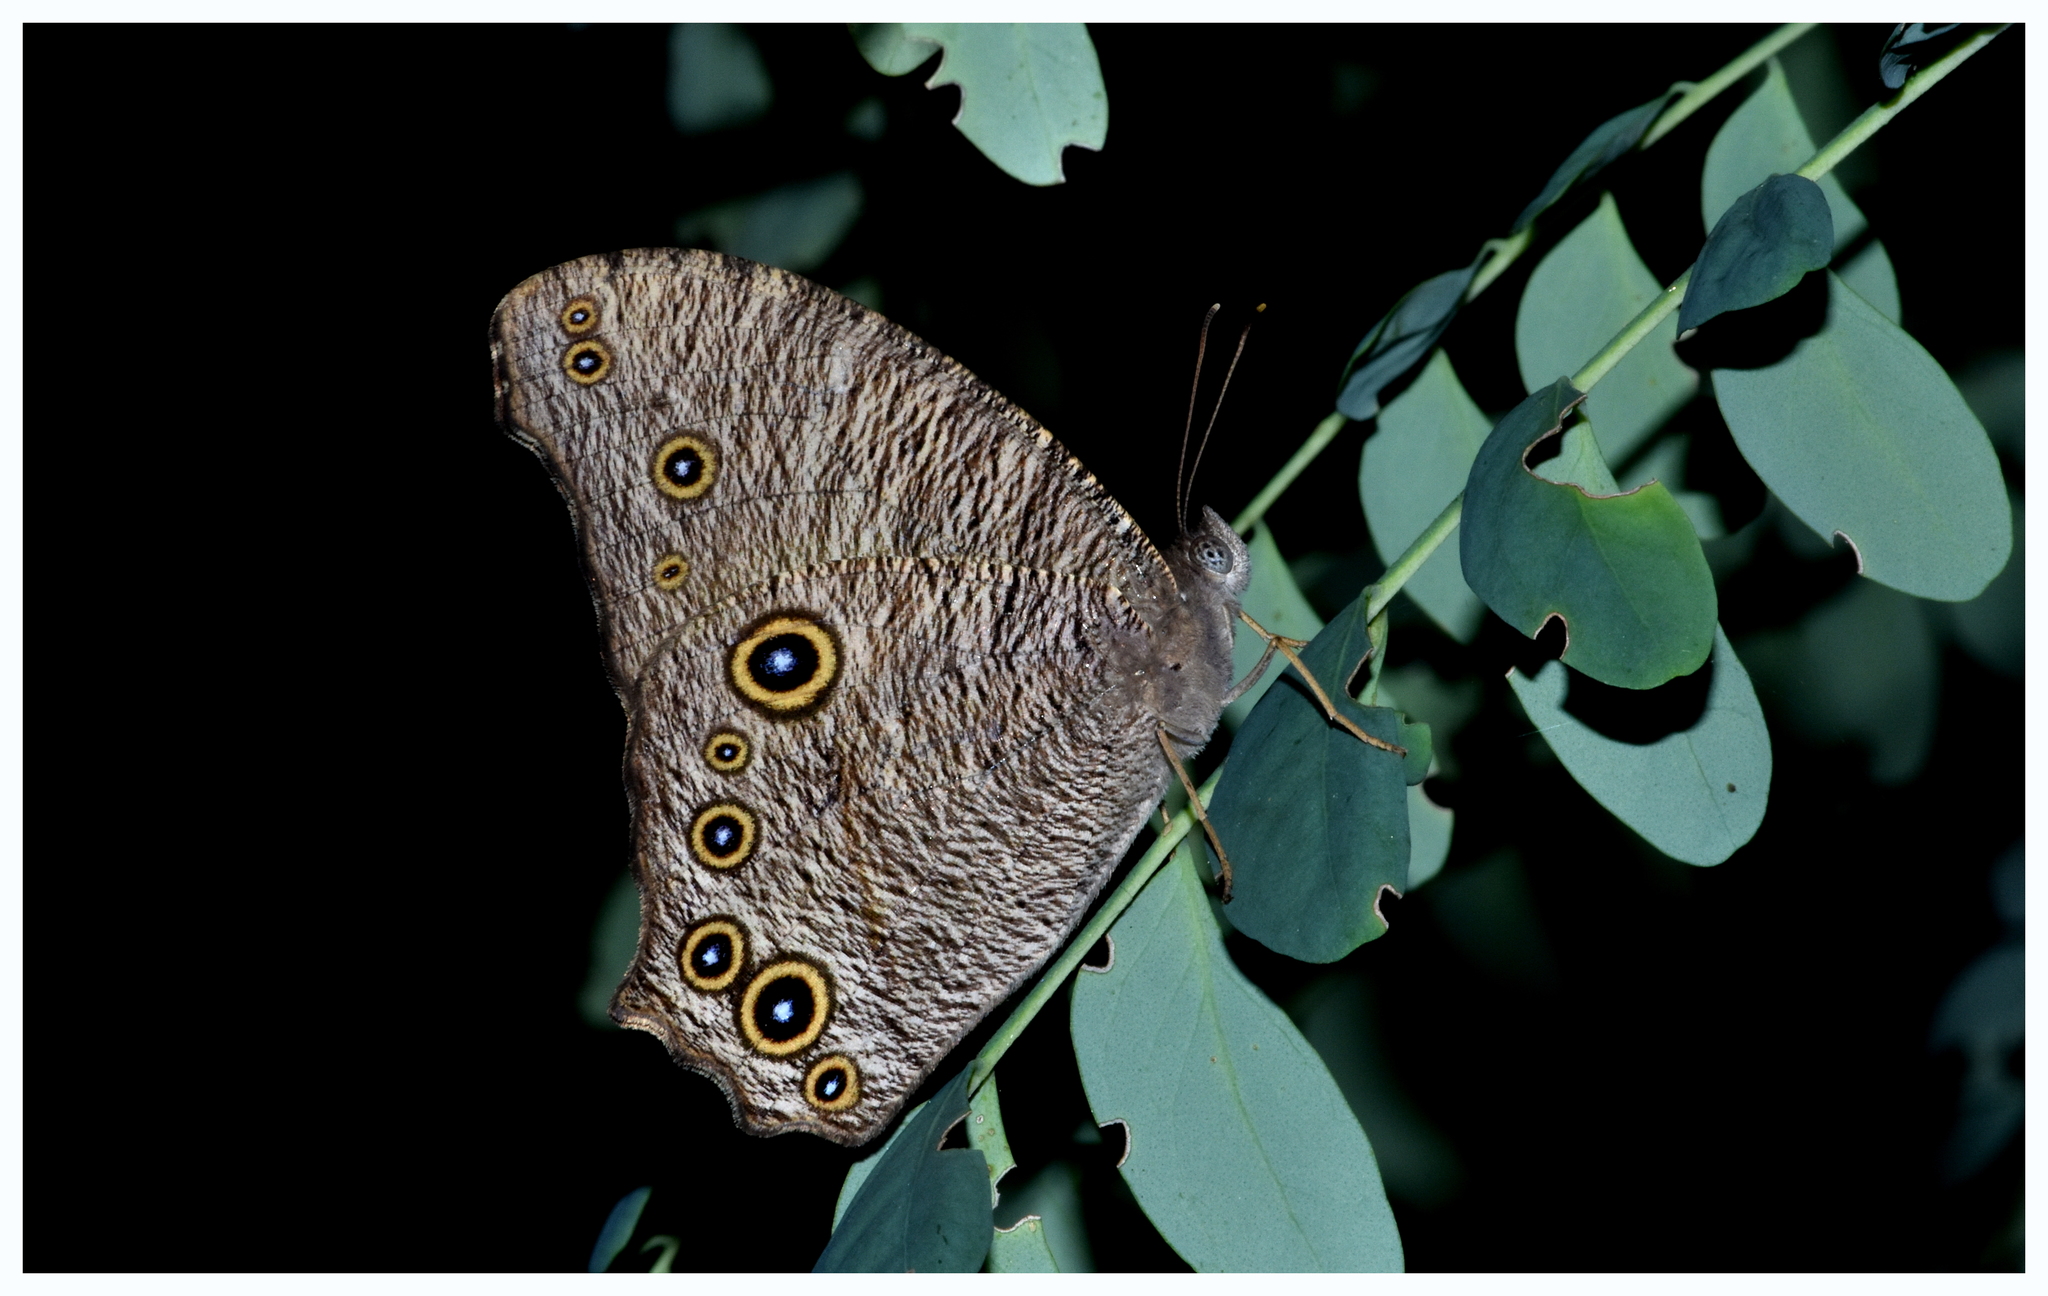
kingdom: Animalia
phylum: Arthropoda
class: Insecta
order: Lepidoptera
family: Nymphalidae
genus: Melanitis
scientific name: Melanitis leda
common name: Twilight brown
